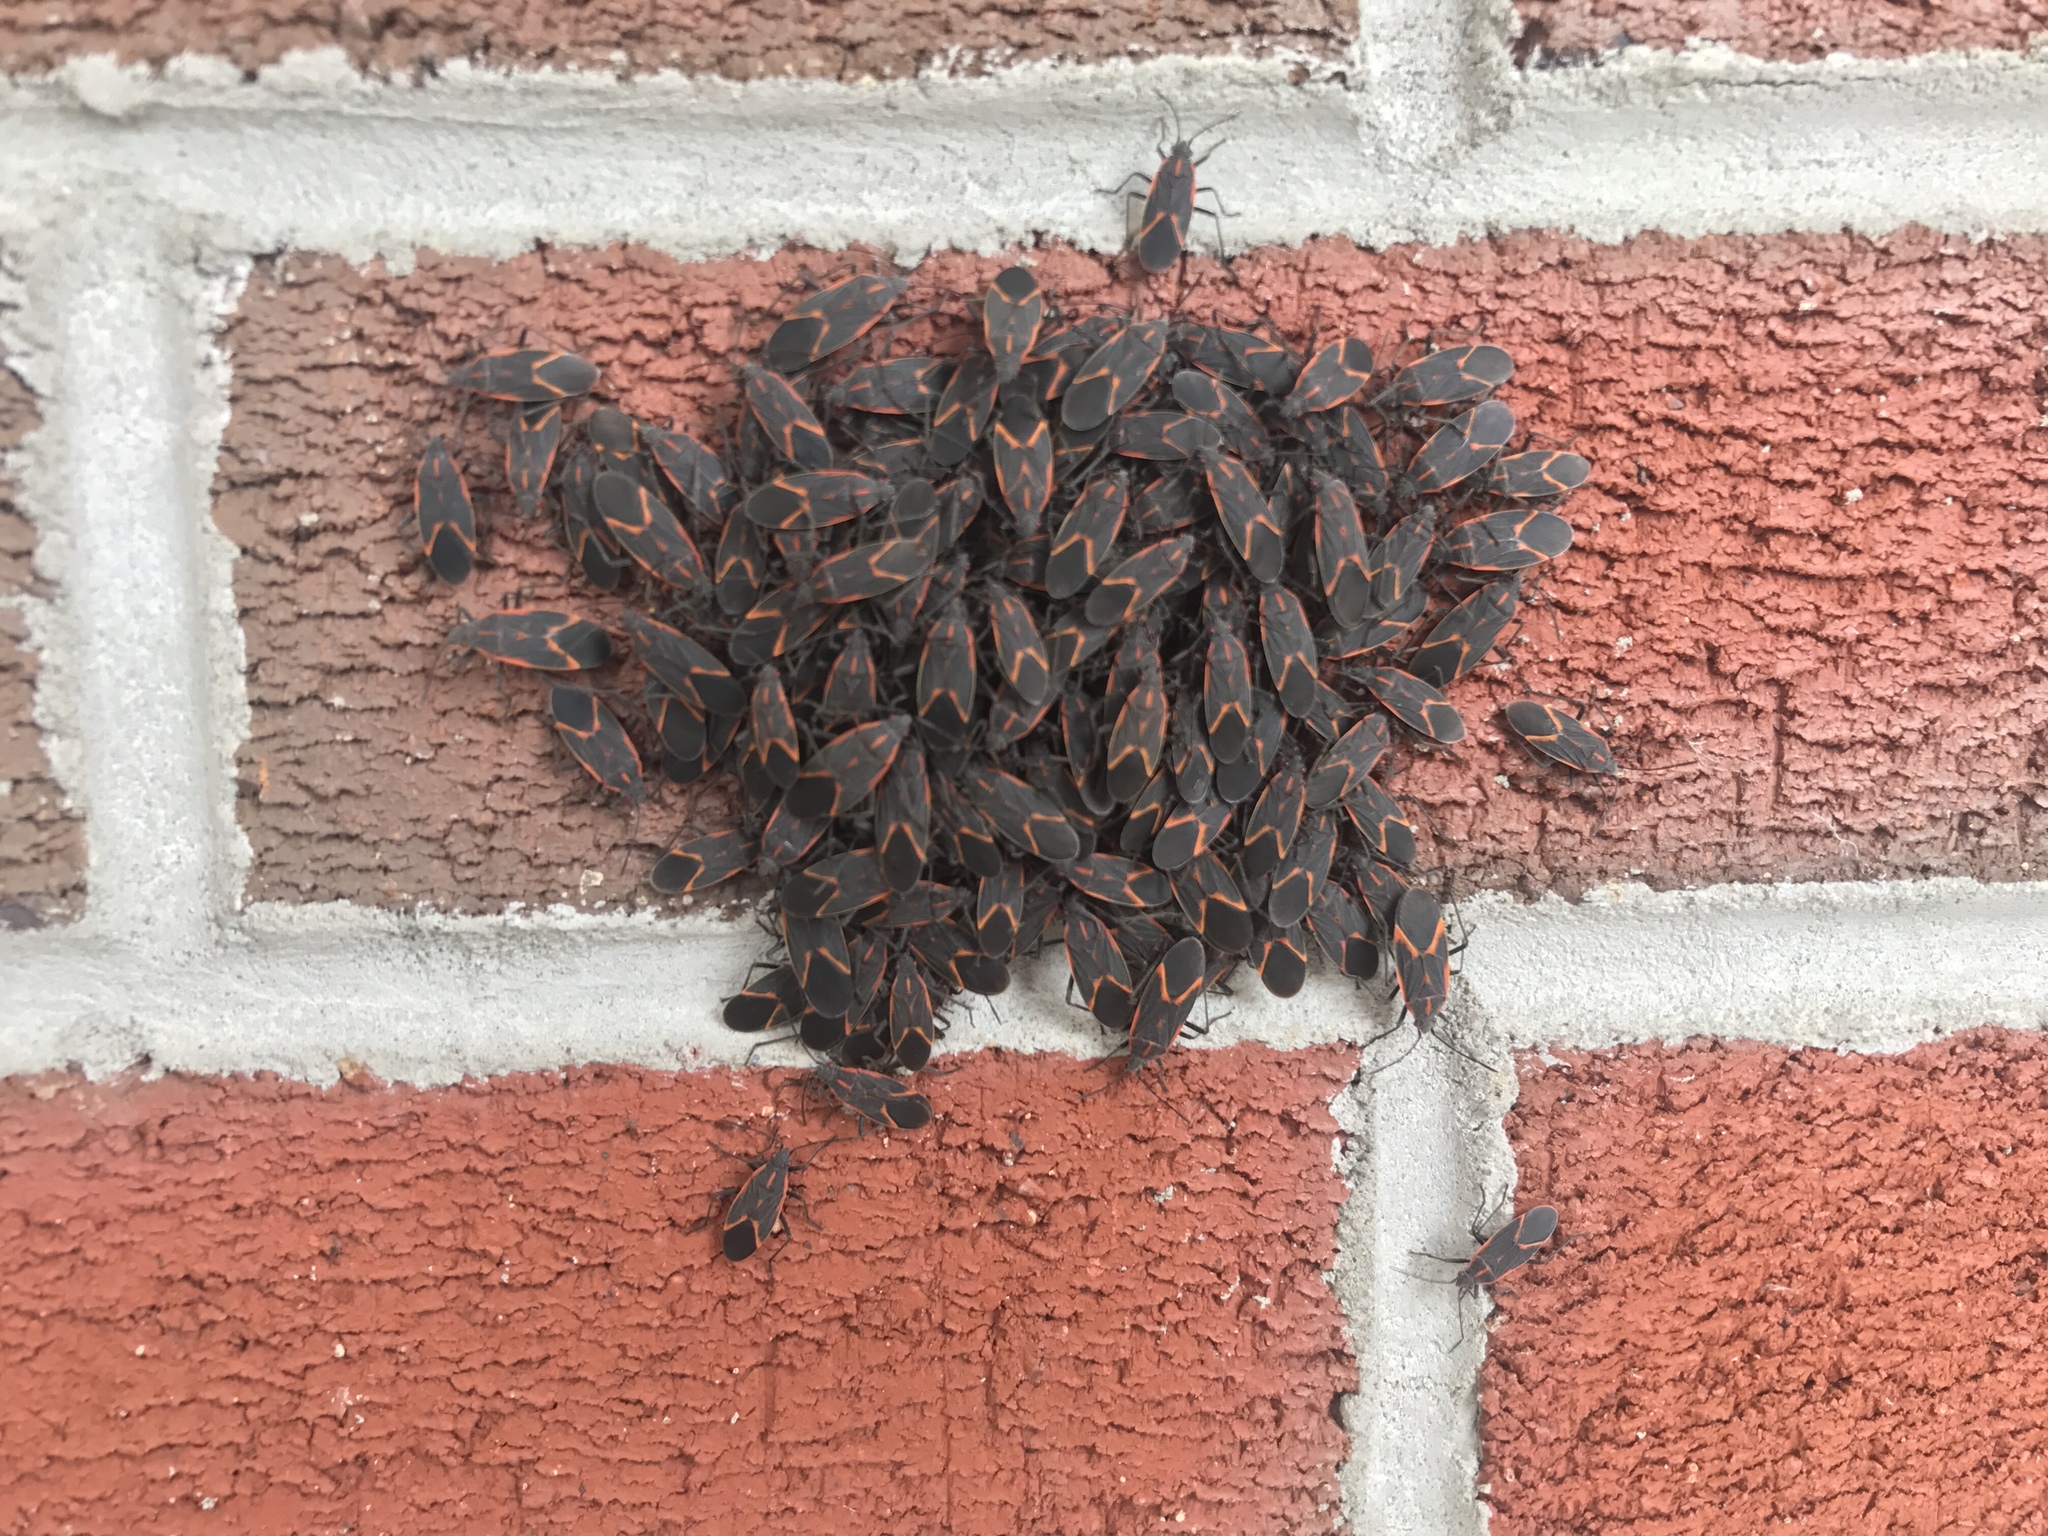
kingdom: Animalia
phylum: Arthropoda
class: Insecta
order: Hemiptera
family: Rhopalidae
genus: Boisea
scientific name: Boisea trivittata
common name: Boxelder bug
